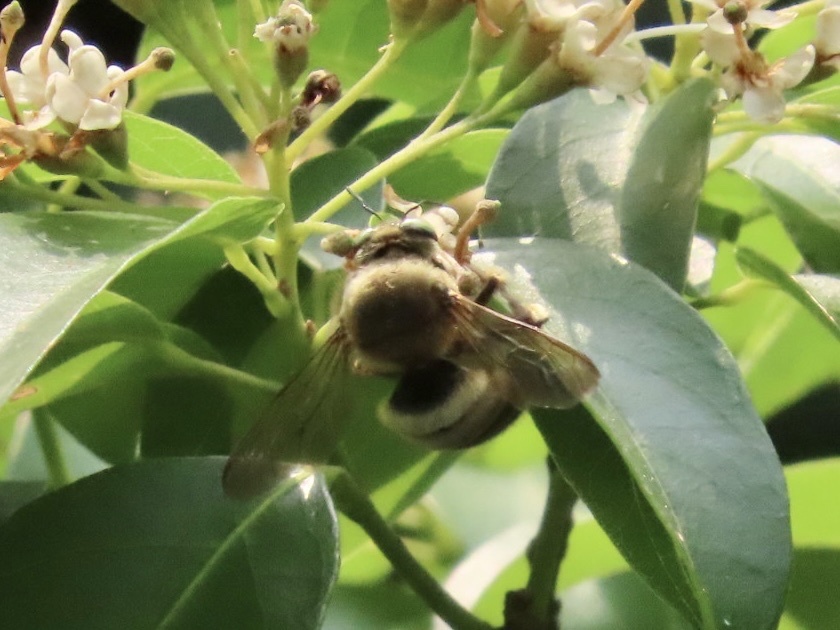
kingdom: Animalia
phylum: Arthropoda
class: Insecta
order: Hymenoptera
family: Apidae
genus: Xylocopa
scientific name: Xylocopa dejeanii
